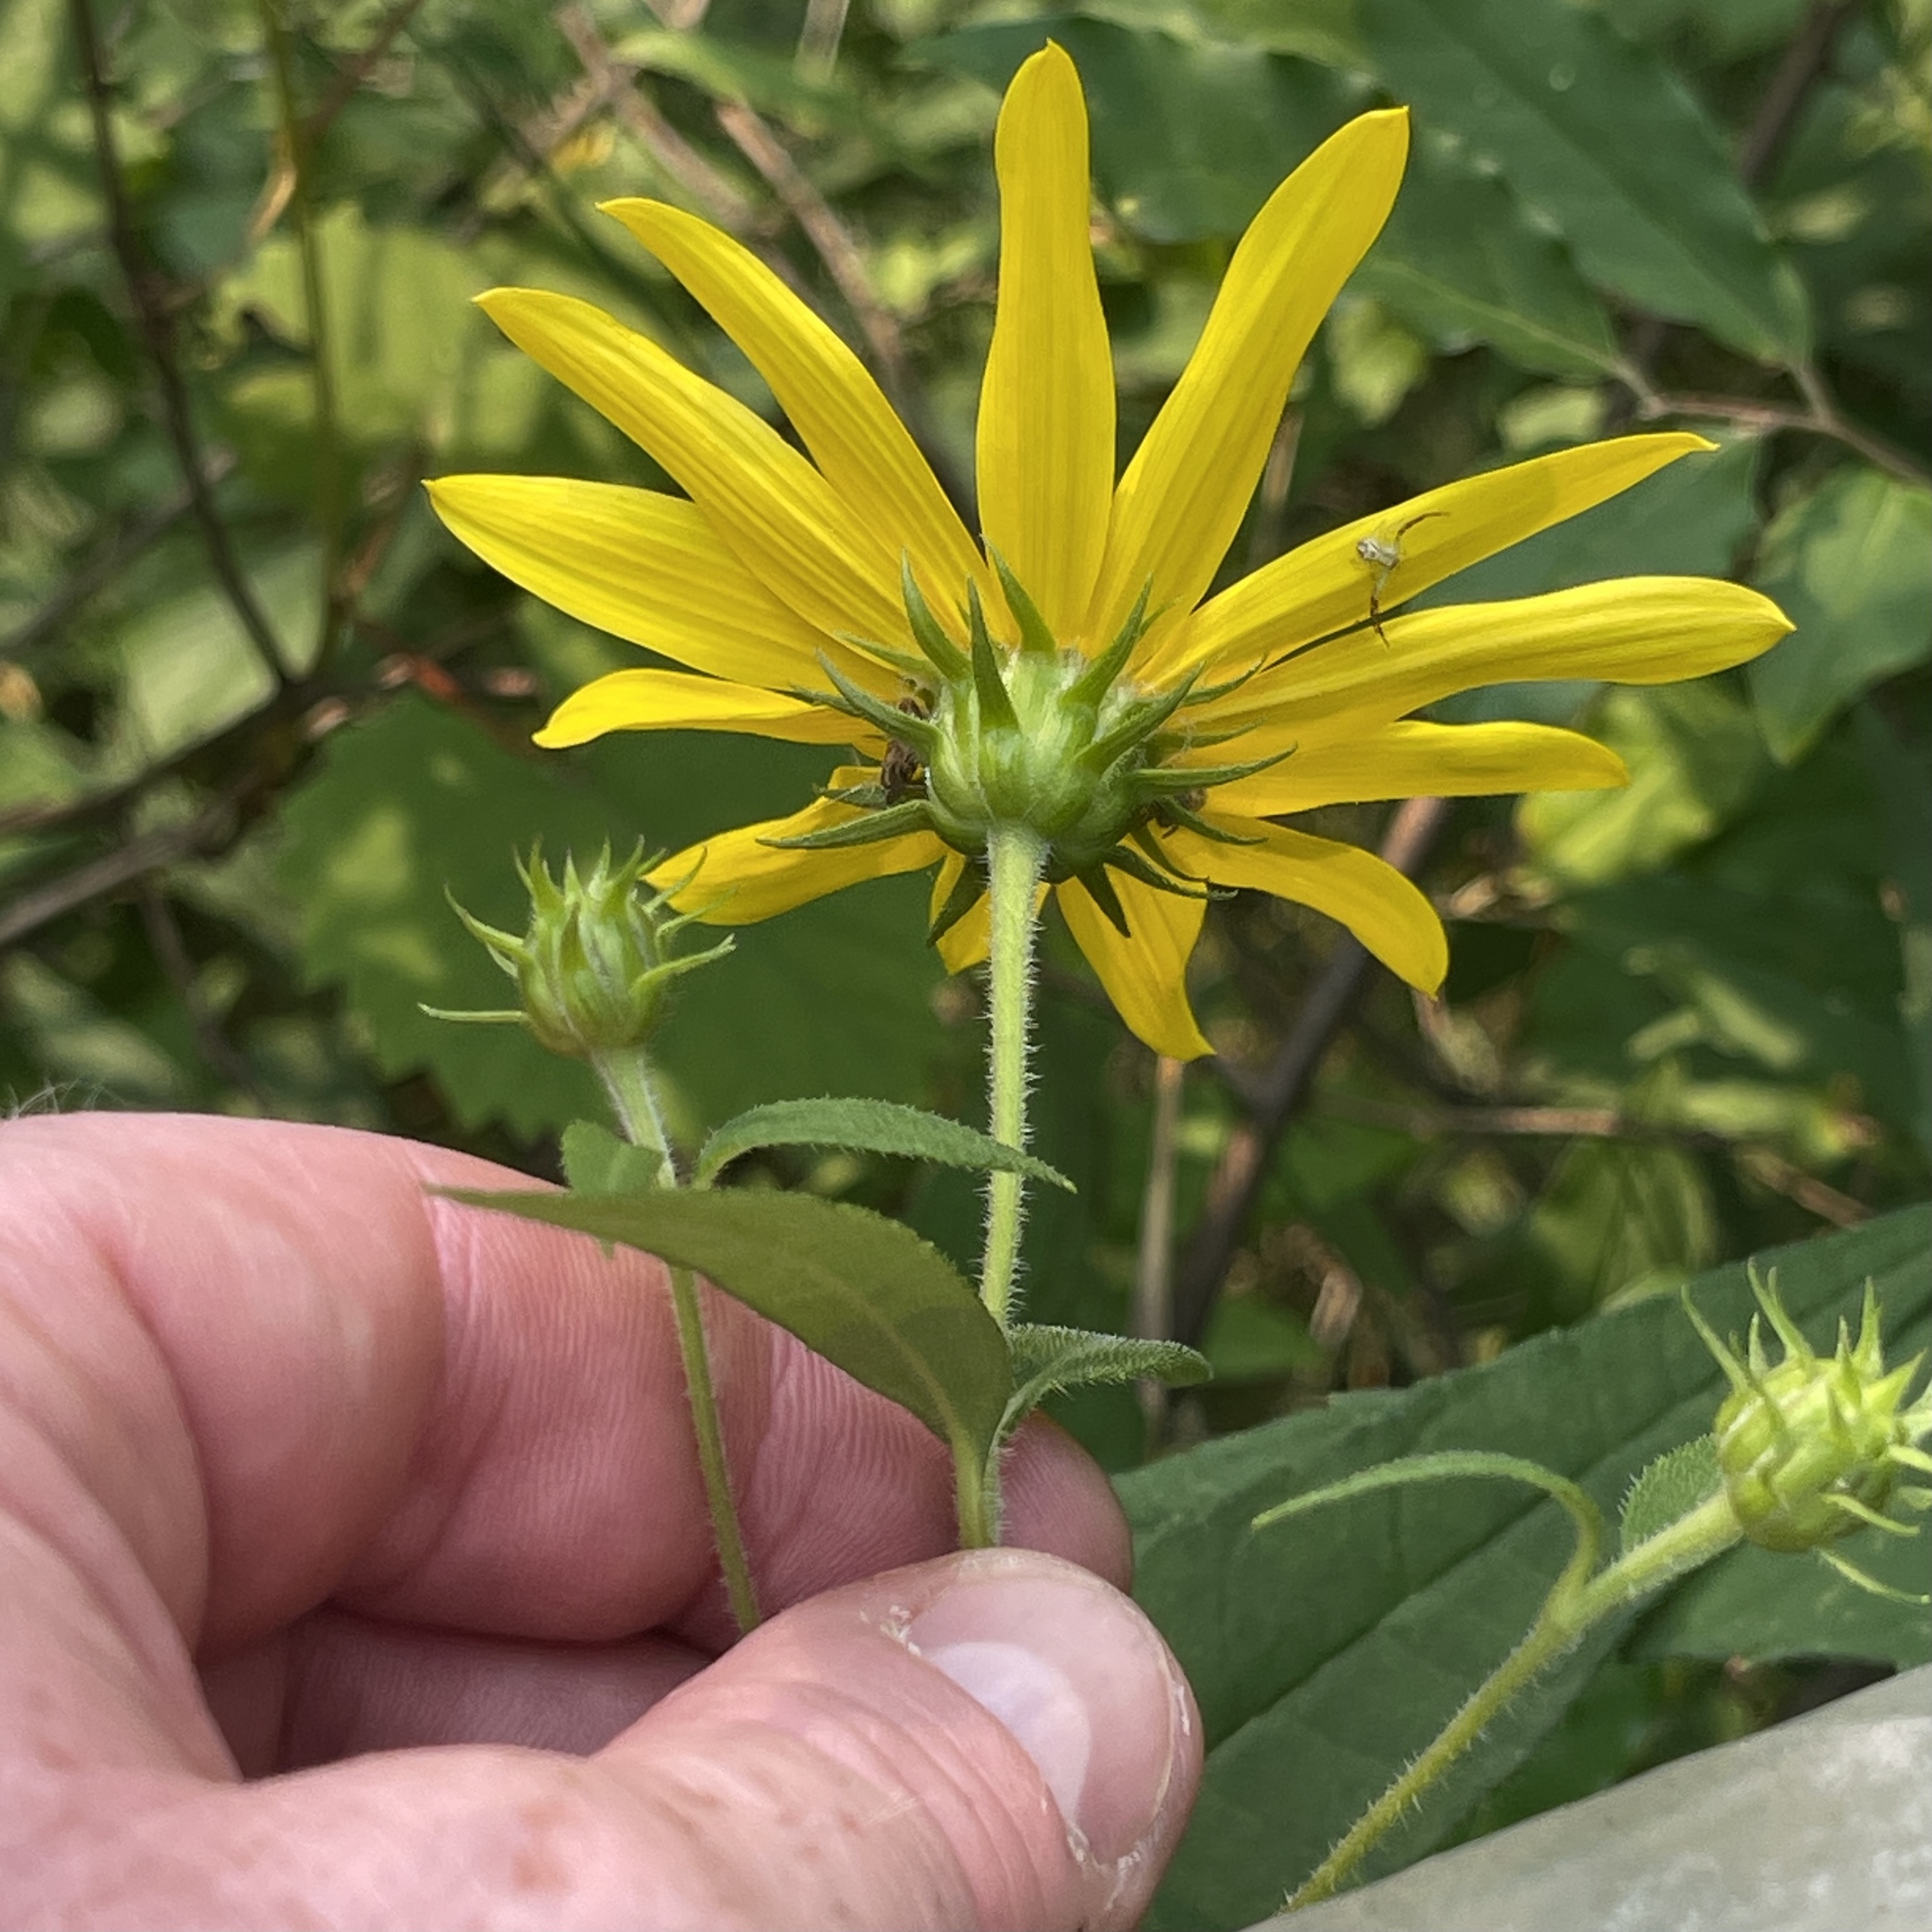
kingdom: Plantae
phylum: Tracheophyta
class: Magnoliopsida
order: Asterales
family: Asteraceae
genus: Helianthus
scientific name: Helianthus strumosus
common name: Pale-leaved sunflower
